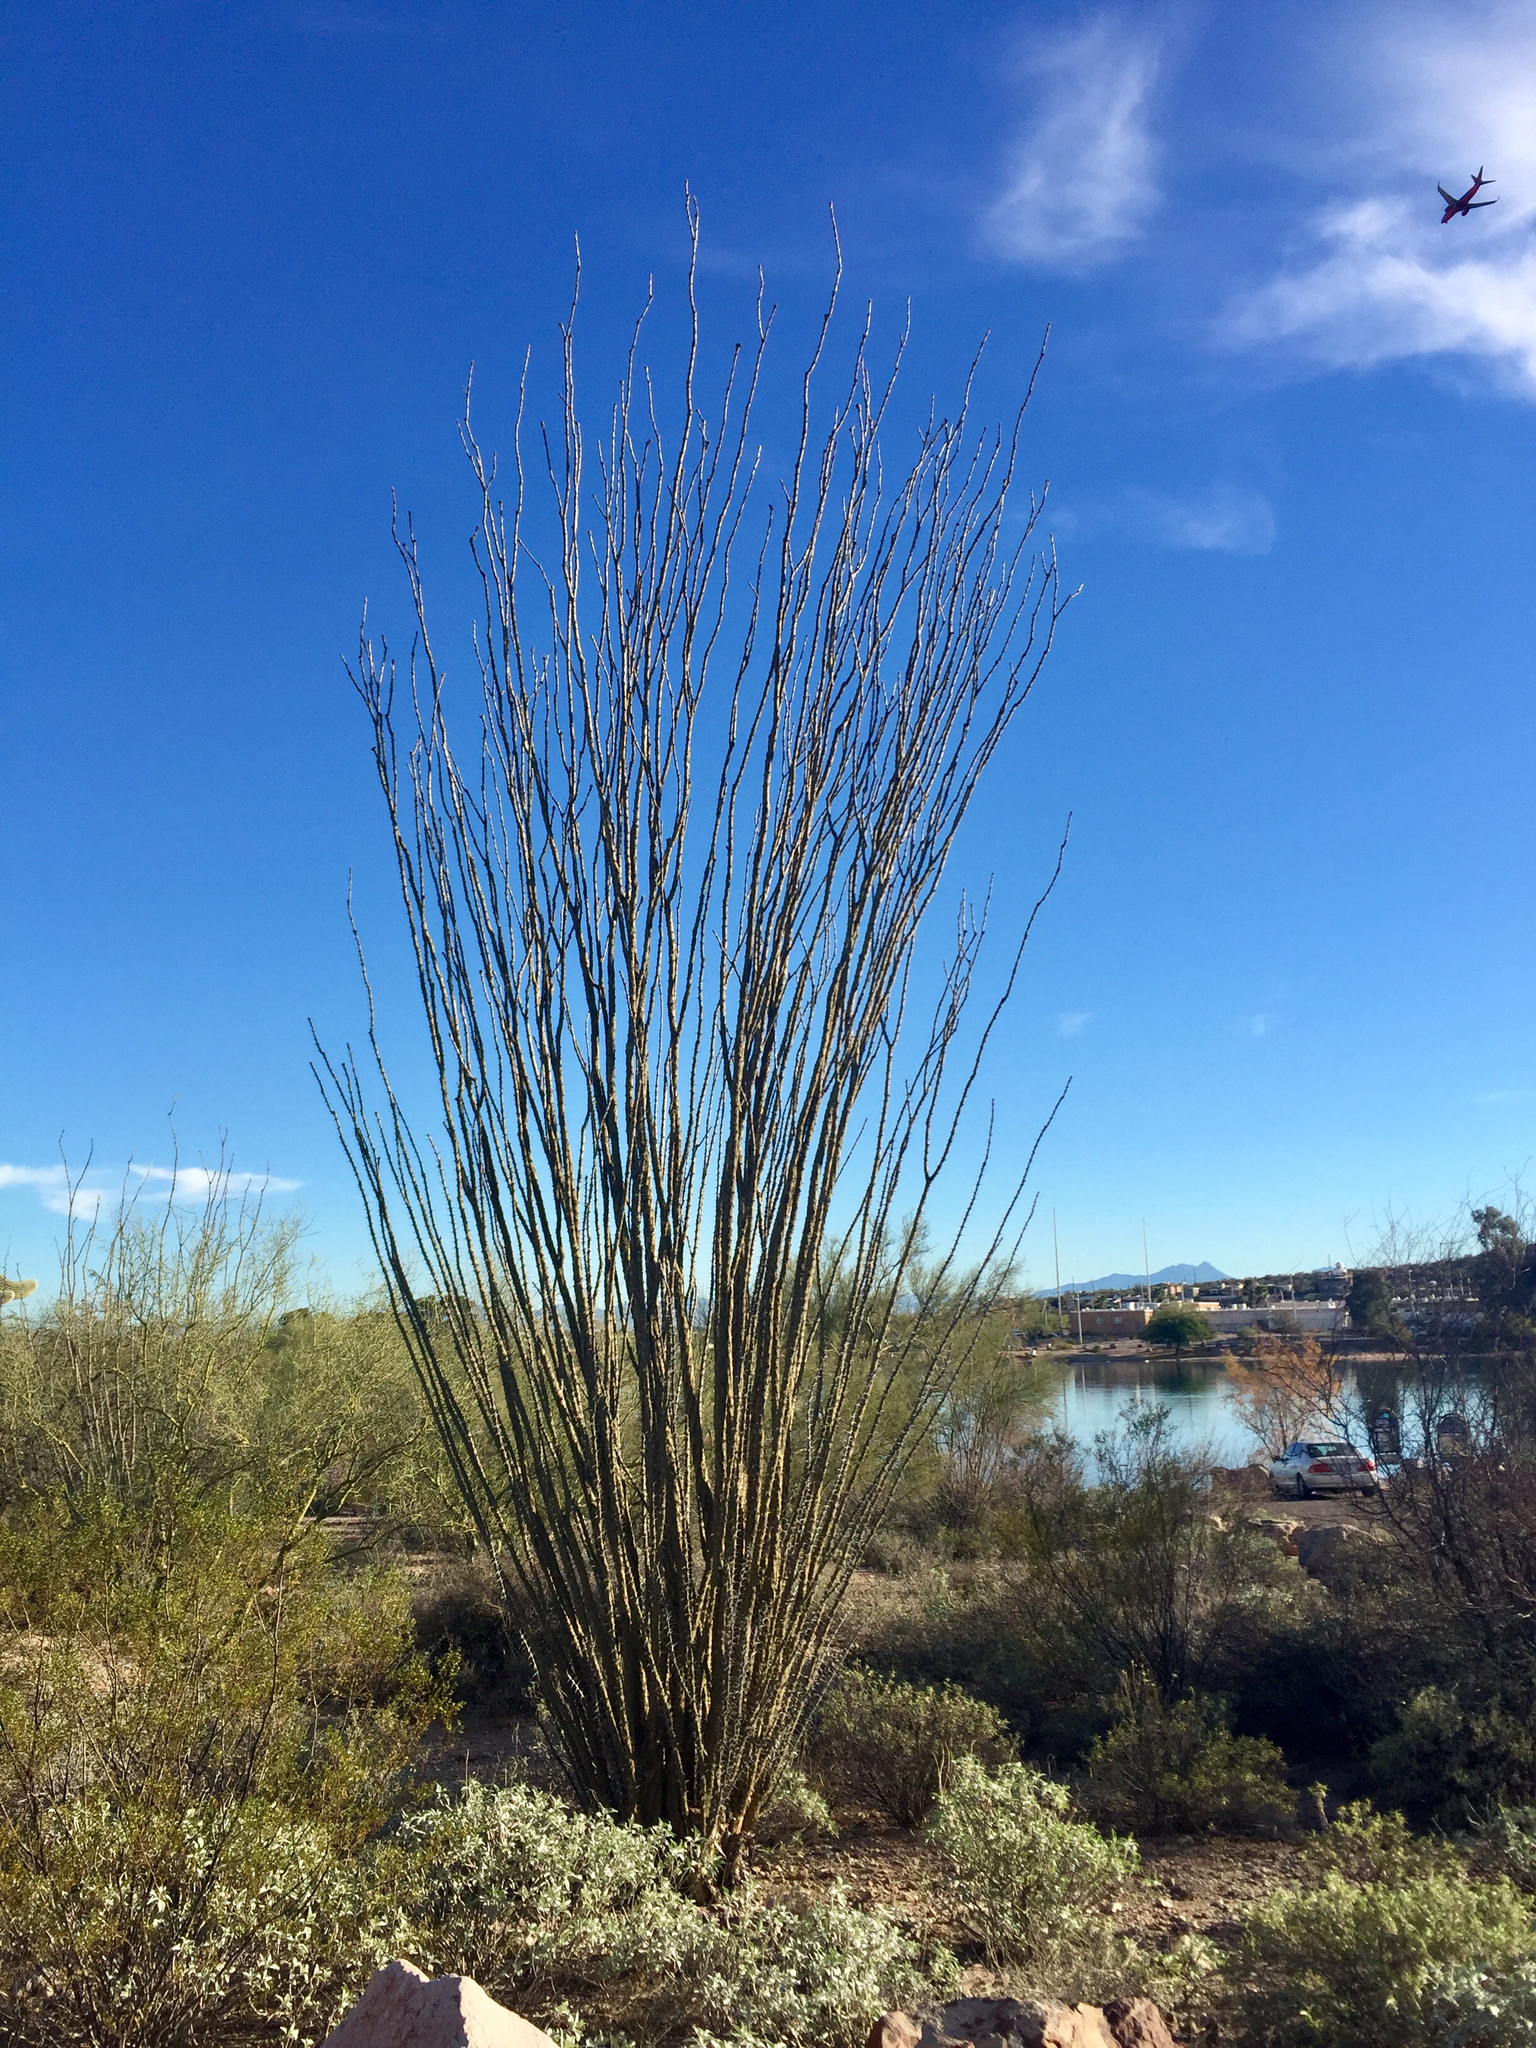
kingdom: Plantae
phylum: Tracheophyta
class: Magnoliopsida
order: Ericales
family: Fouquieriaceae
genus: Fouquieria
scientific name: Fouquieria splendens
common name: Vine-cactus
